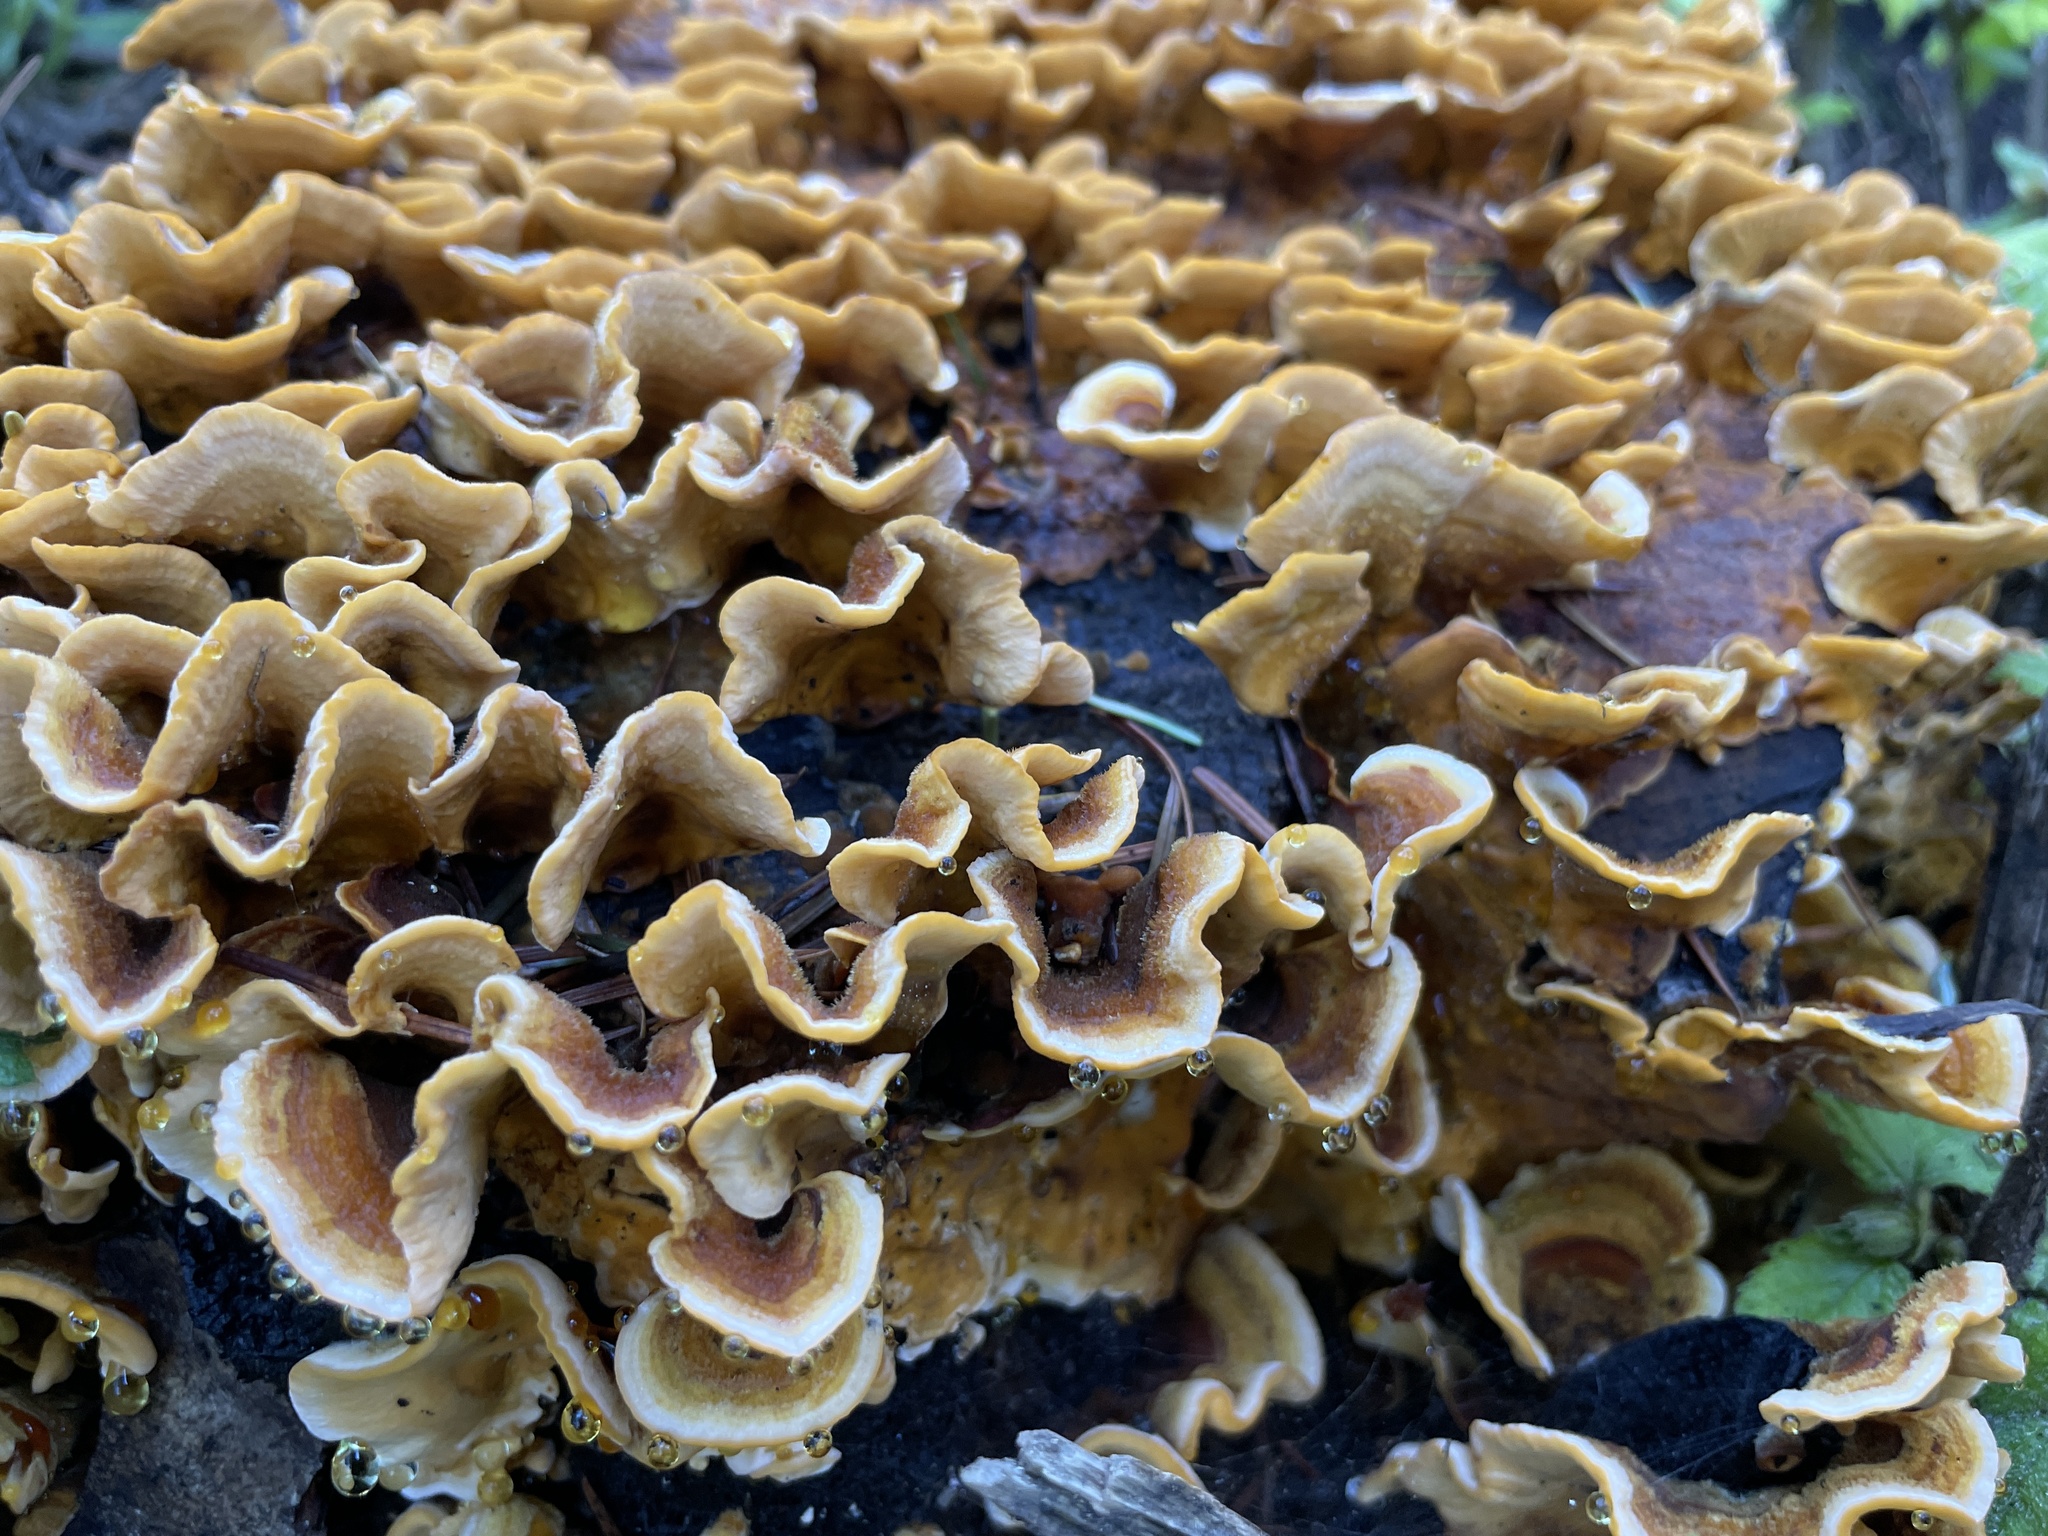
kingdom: Fungi
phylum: Basidiomycota
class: Agaricomycetes
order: Russulales
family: Stereaceae
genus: Stereum
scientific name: Stereum hirsutum
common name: Hairy curtain crust
